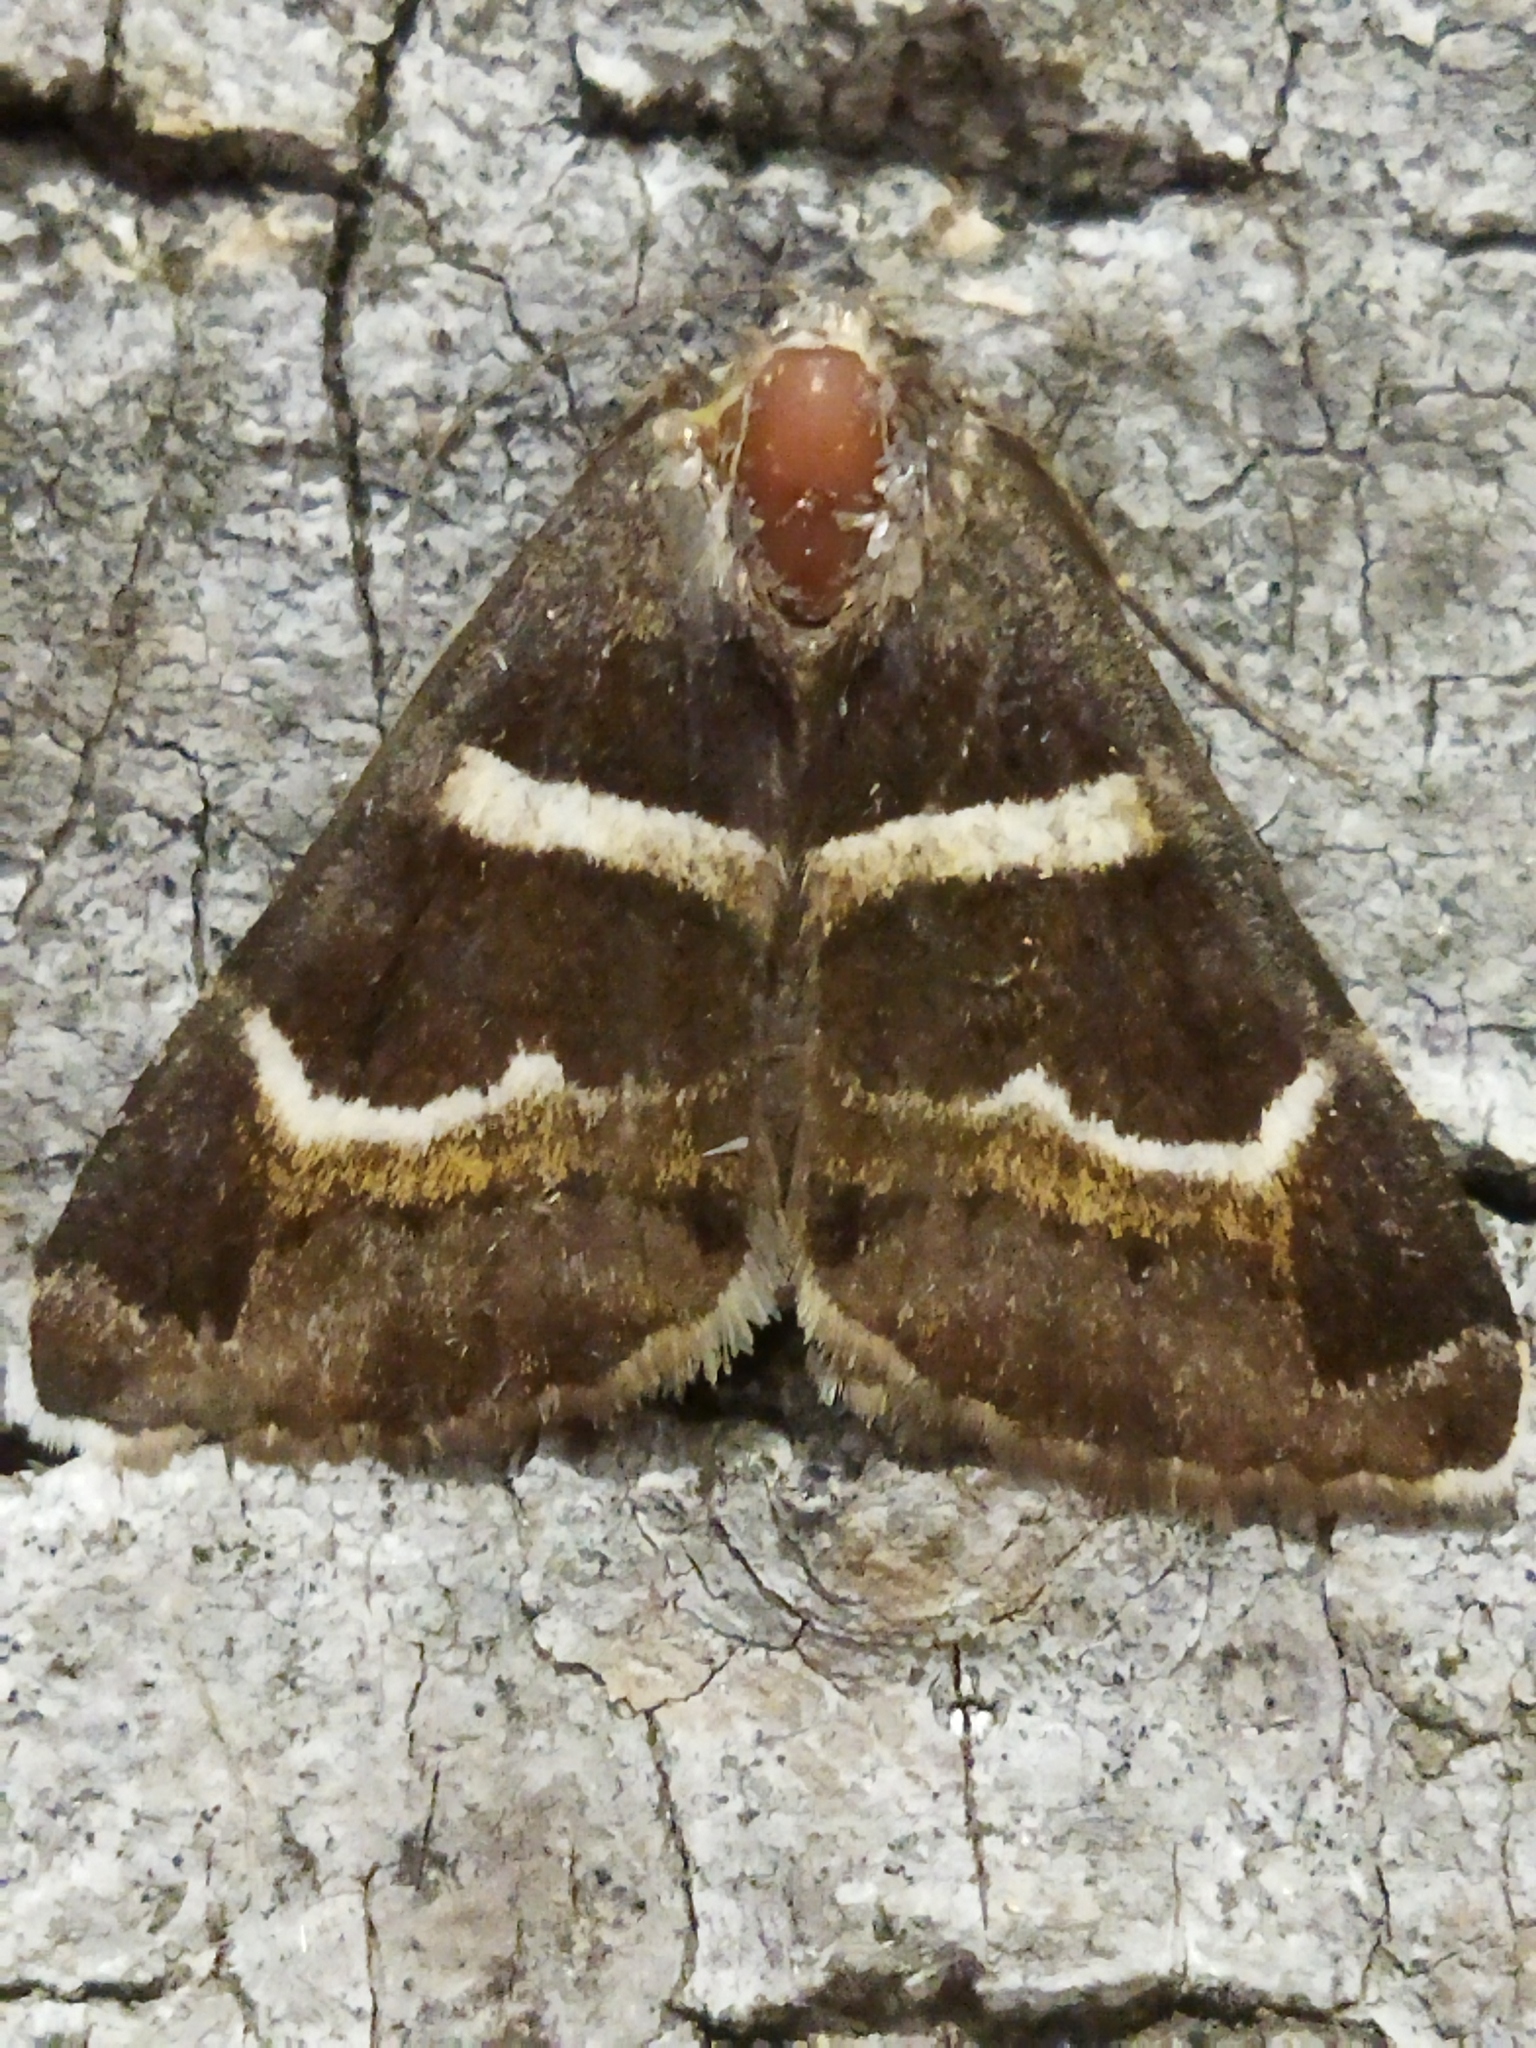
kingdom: Animalia
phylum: Arthropoda
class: Insecta
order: Lepidoptera
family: Erebidae
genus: Grammodes
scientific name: Grammodes stolida
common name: Geometrician
